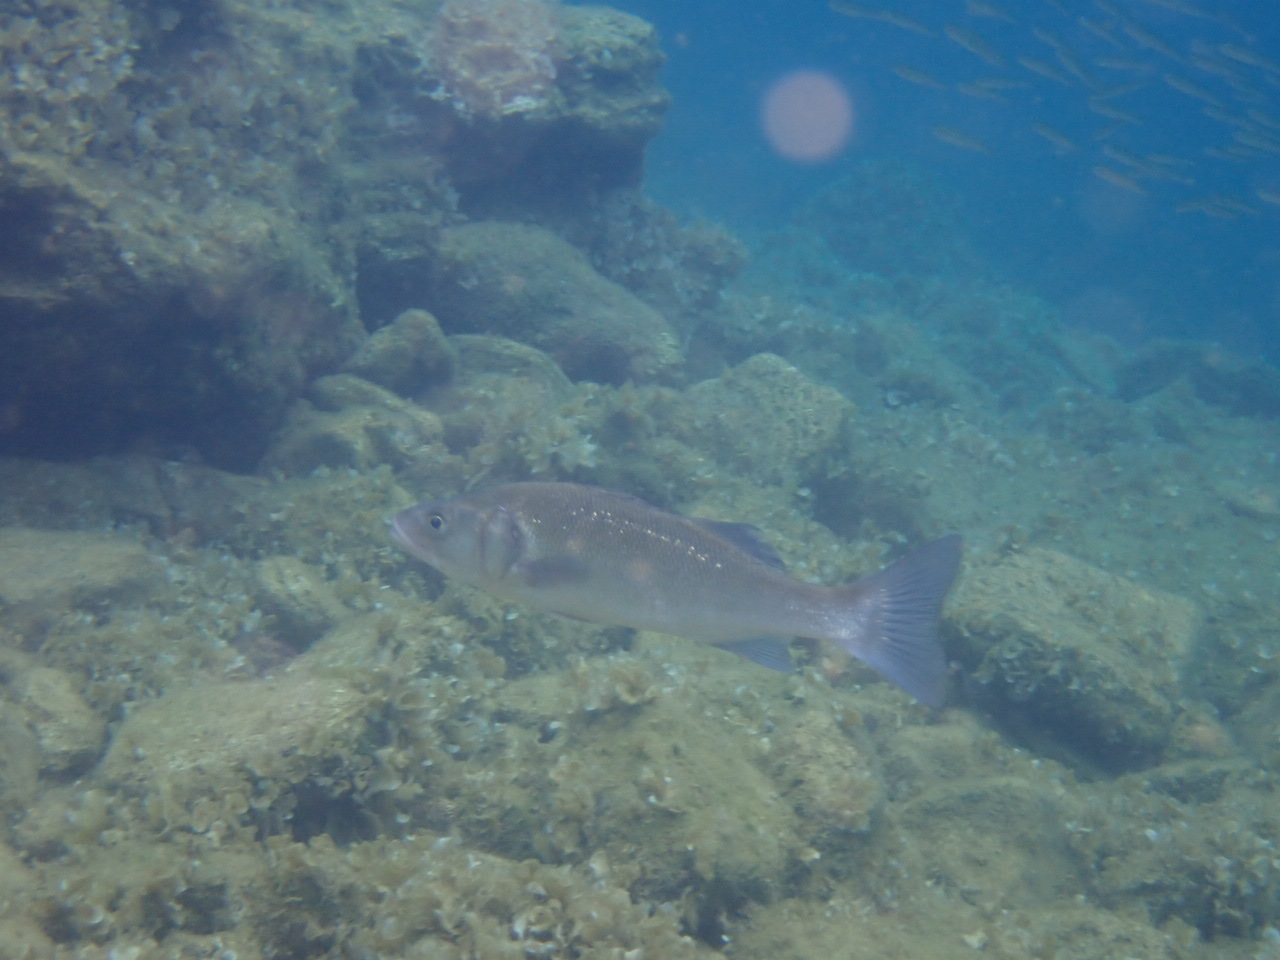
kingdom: Animalia
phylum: Chordata
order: Perciformes
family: Moronidae
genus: Dicentrarchus
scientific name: Dicentrarchus labrax
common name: European seabass
